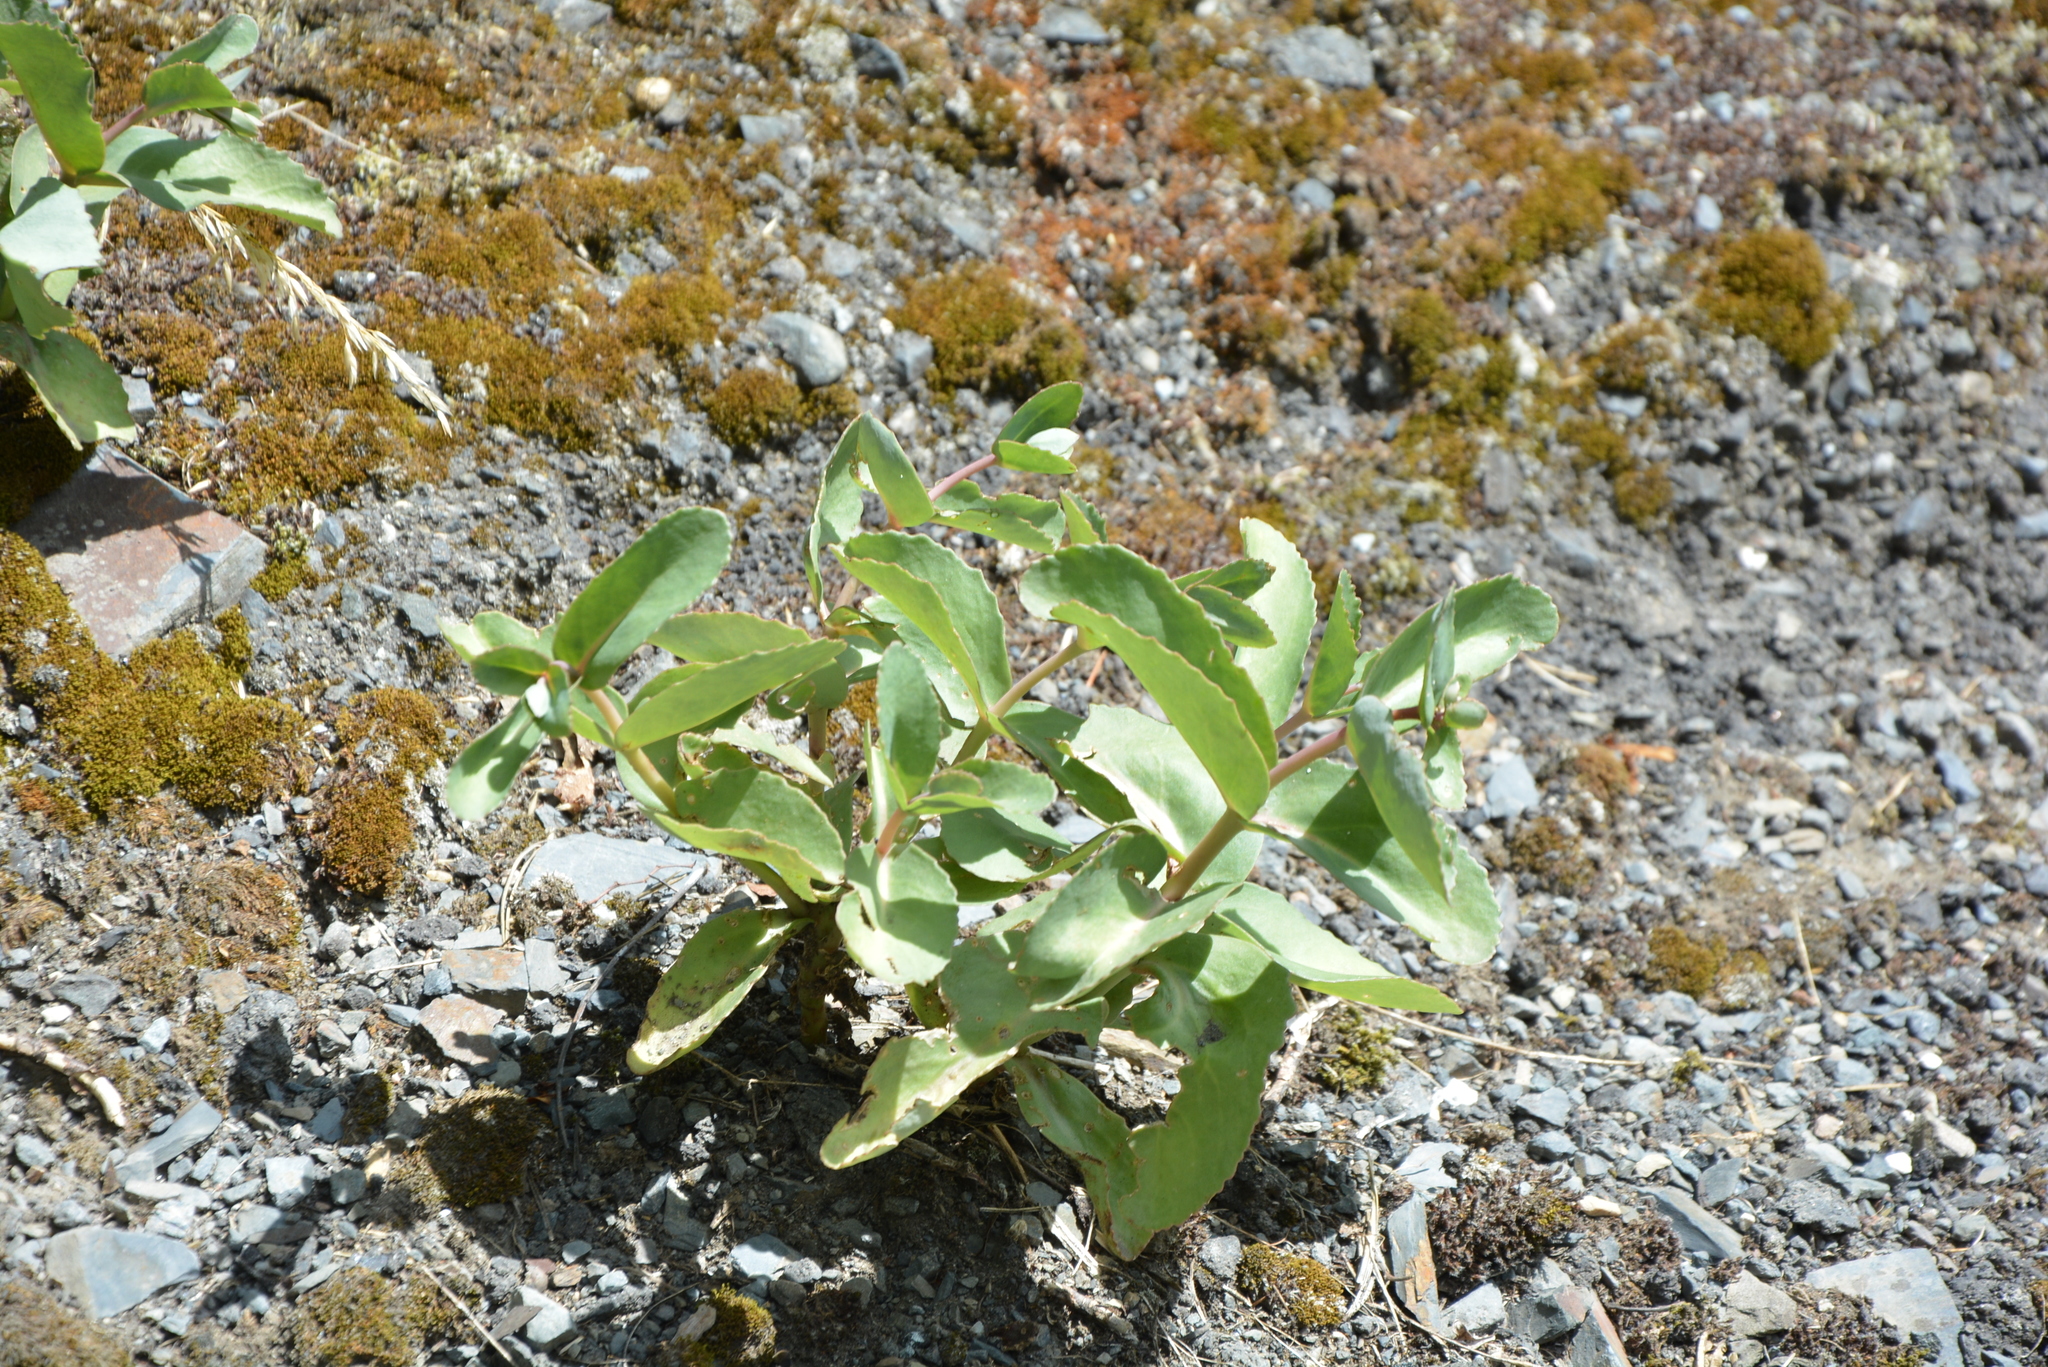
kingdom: Plantae
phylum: Tracheophyta
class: Magnoliopsida
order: Saxifragales
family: Crassulaceae
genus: Hylotelephium
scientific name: Hylotelephium maximum
